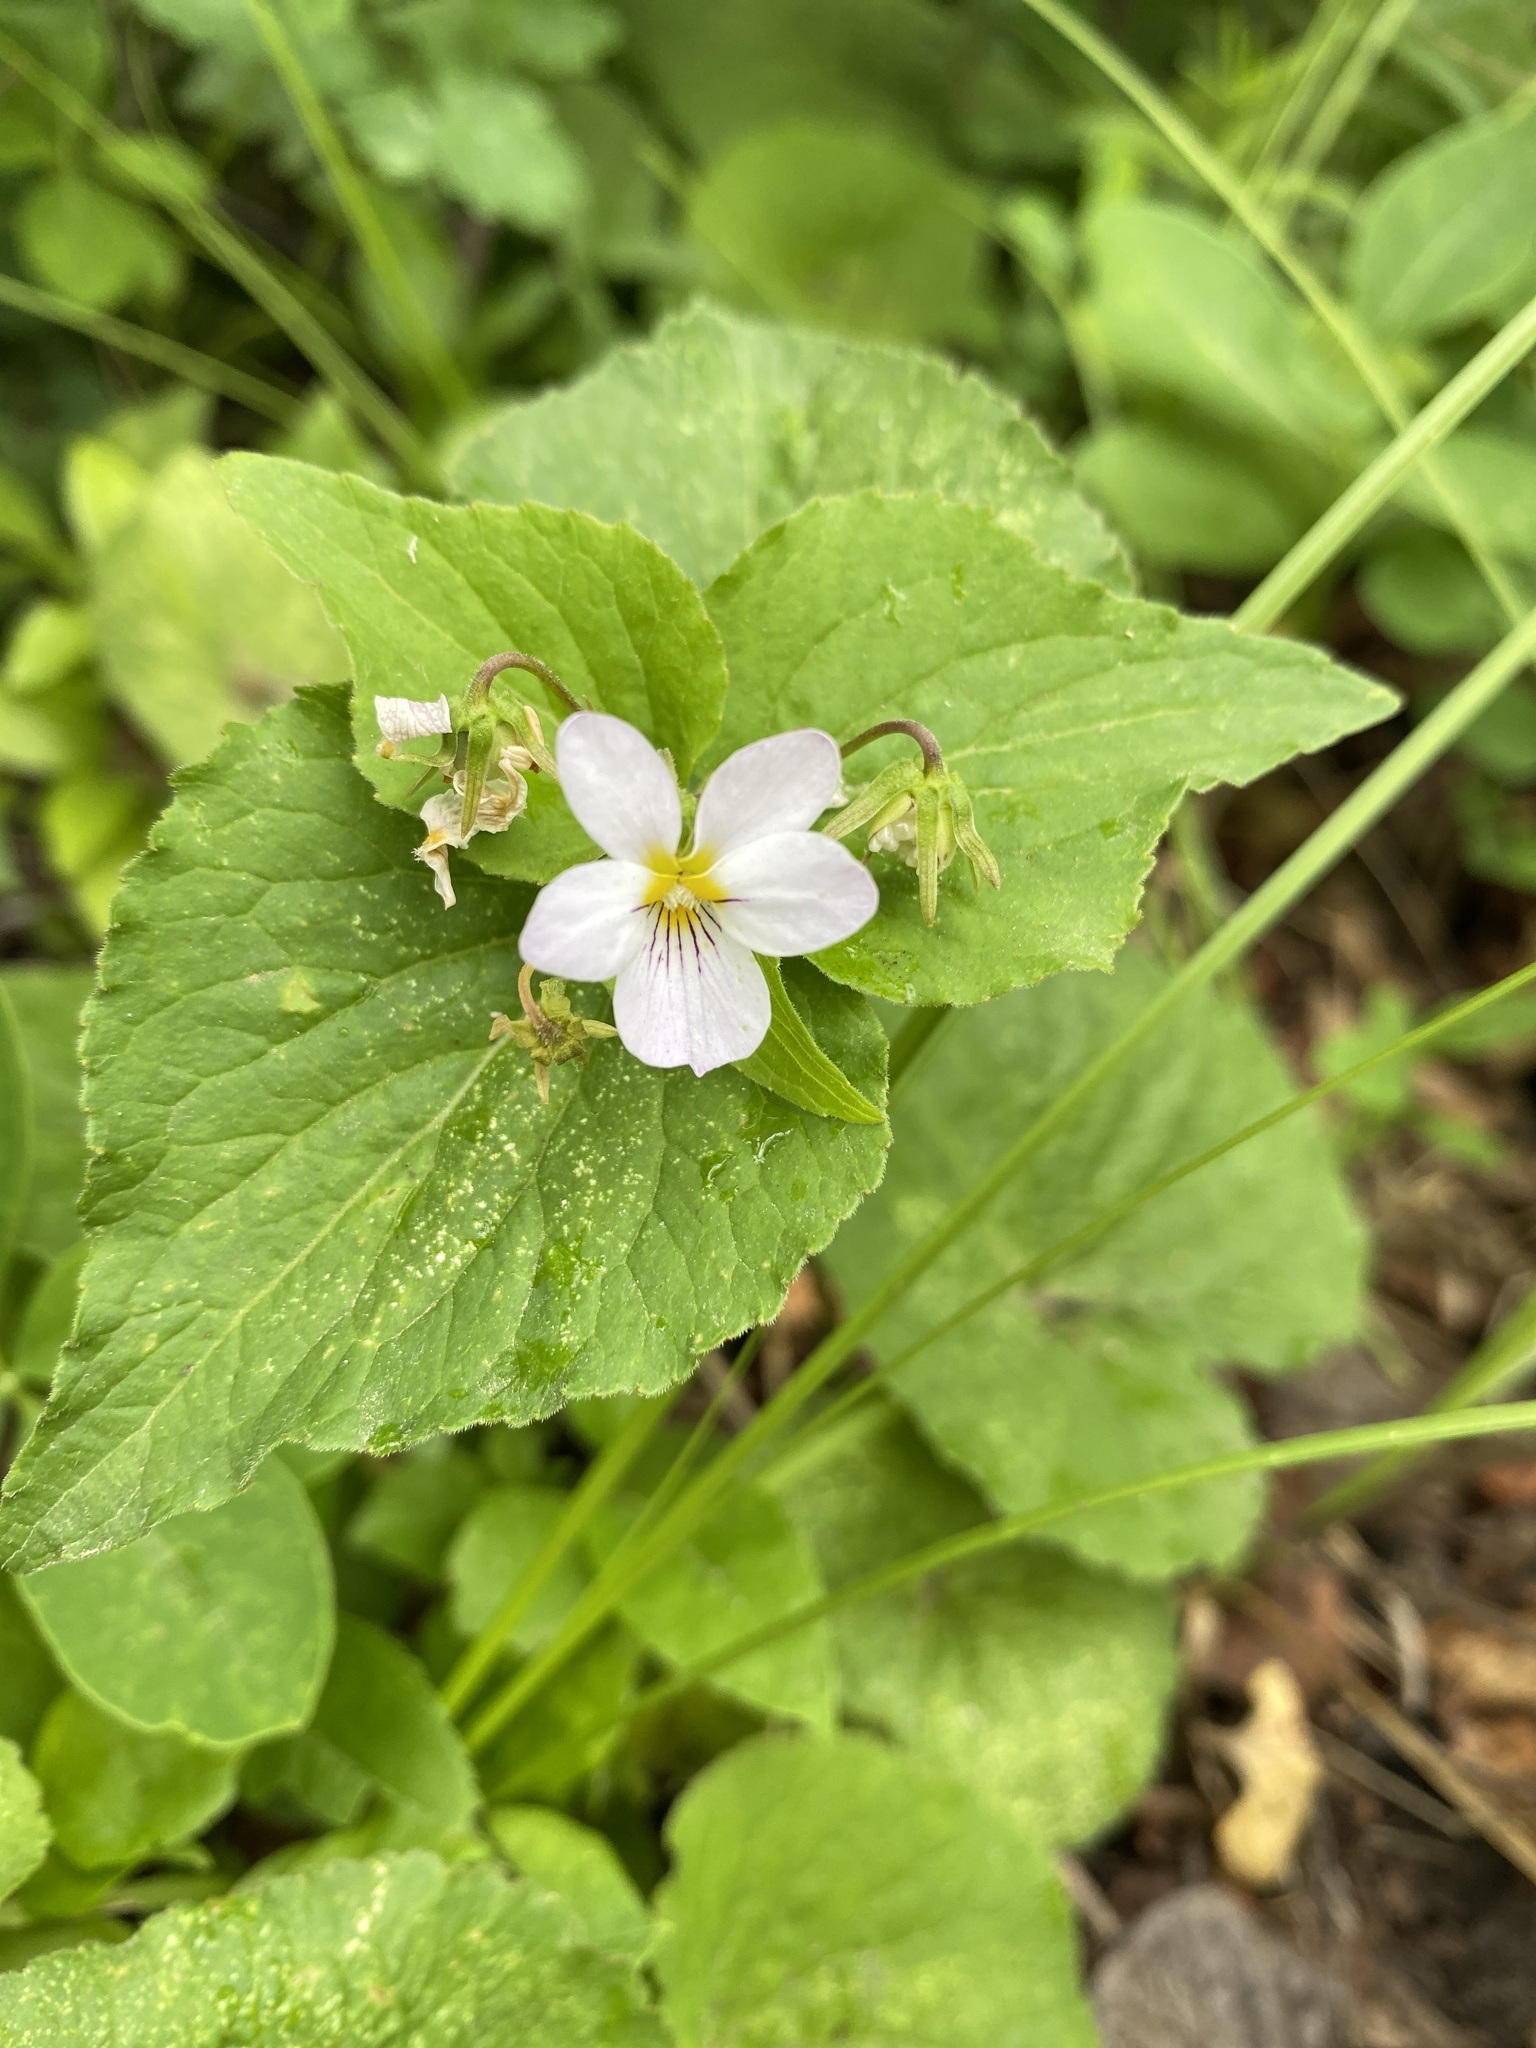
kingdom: Plantae
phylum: Tracheophyta
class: Magnoliopsida
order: Malpighiales
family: Violaceae
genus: Viola
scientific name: Viola canadensis
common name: Canada violet
